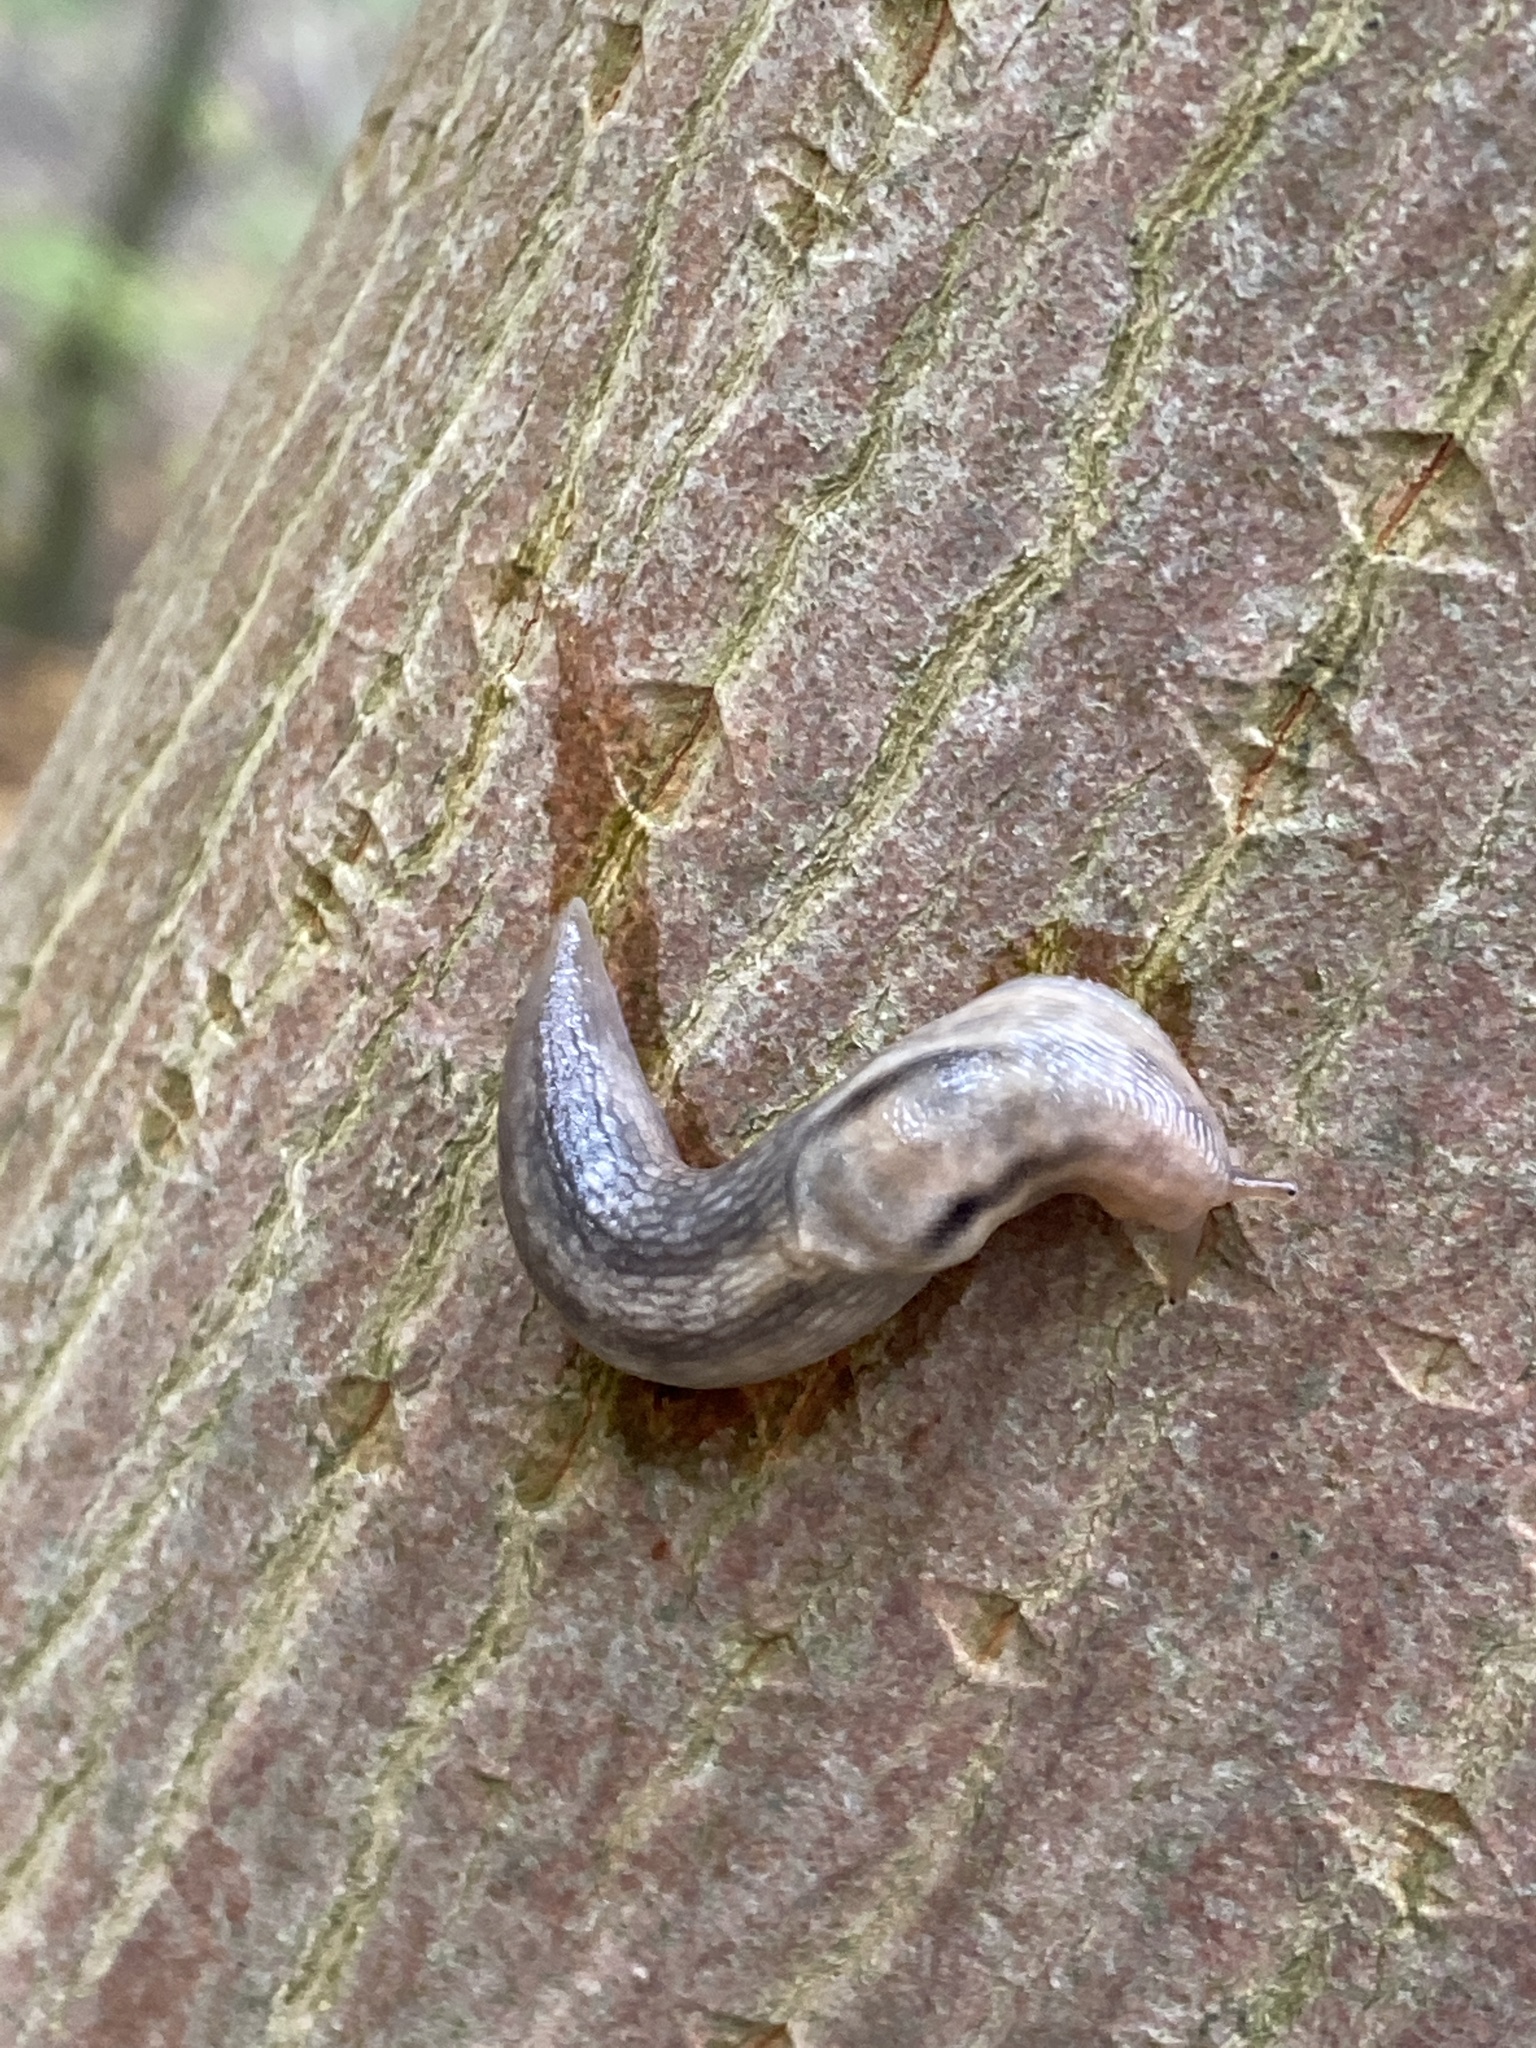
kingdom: Animalia
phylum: Mollusca
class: Gastropoda
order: Stylommatophora
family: Limacidae
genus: Lehmannia
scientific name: Lehmannia marginata
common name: Tree slug
